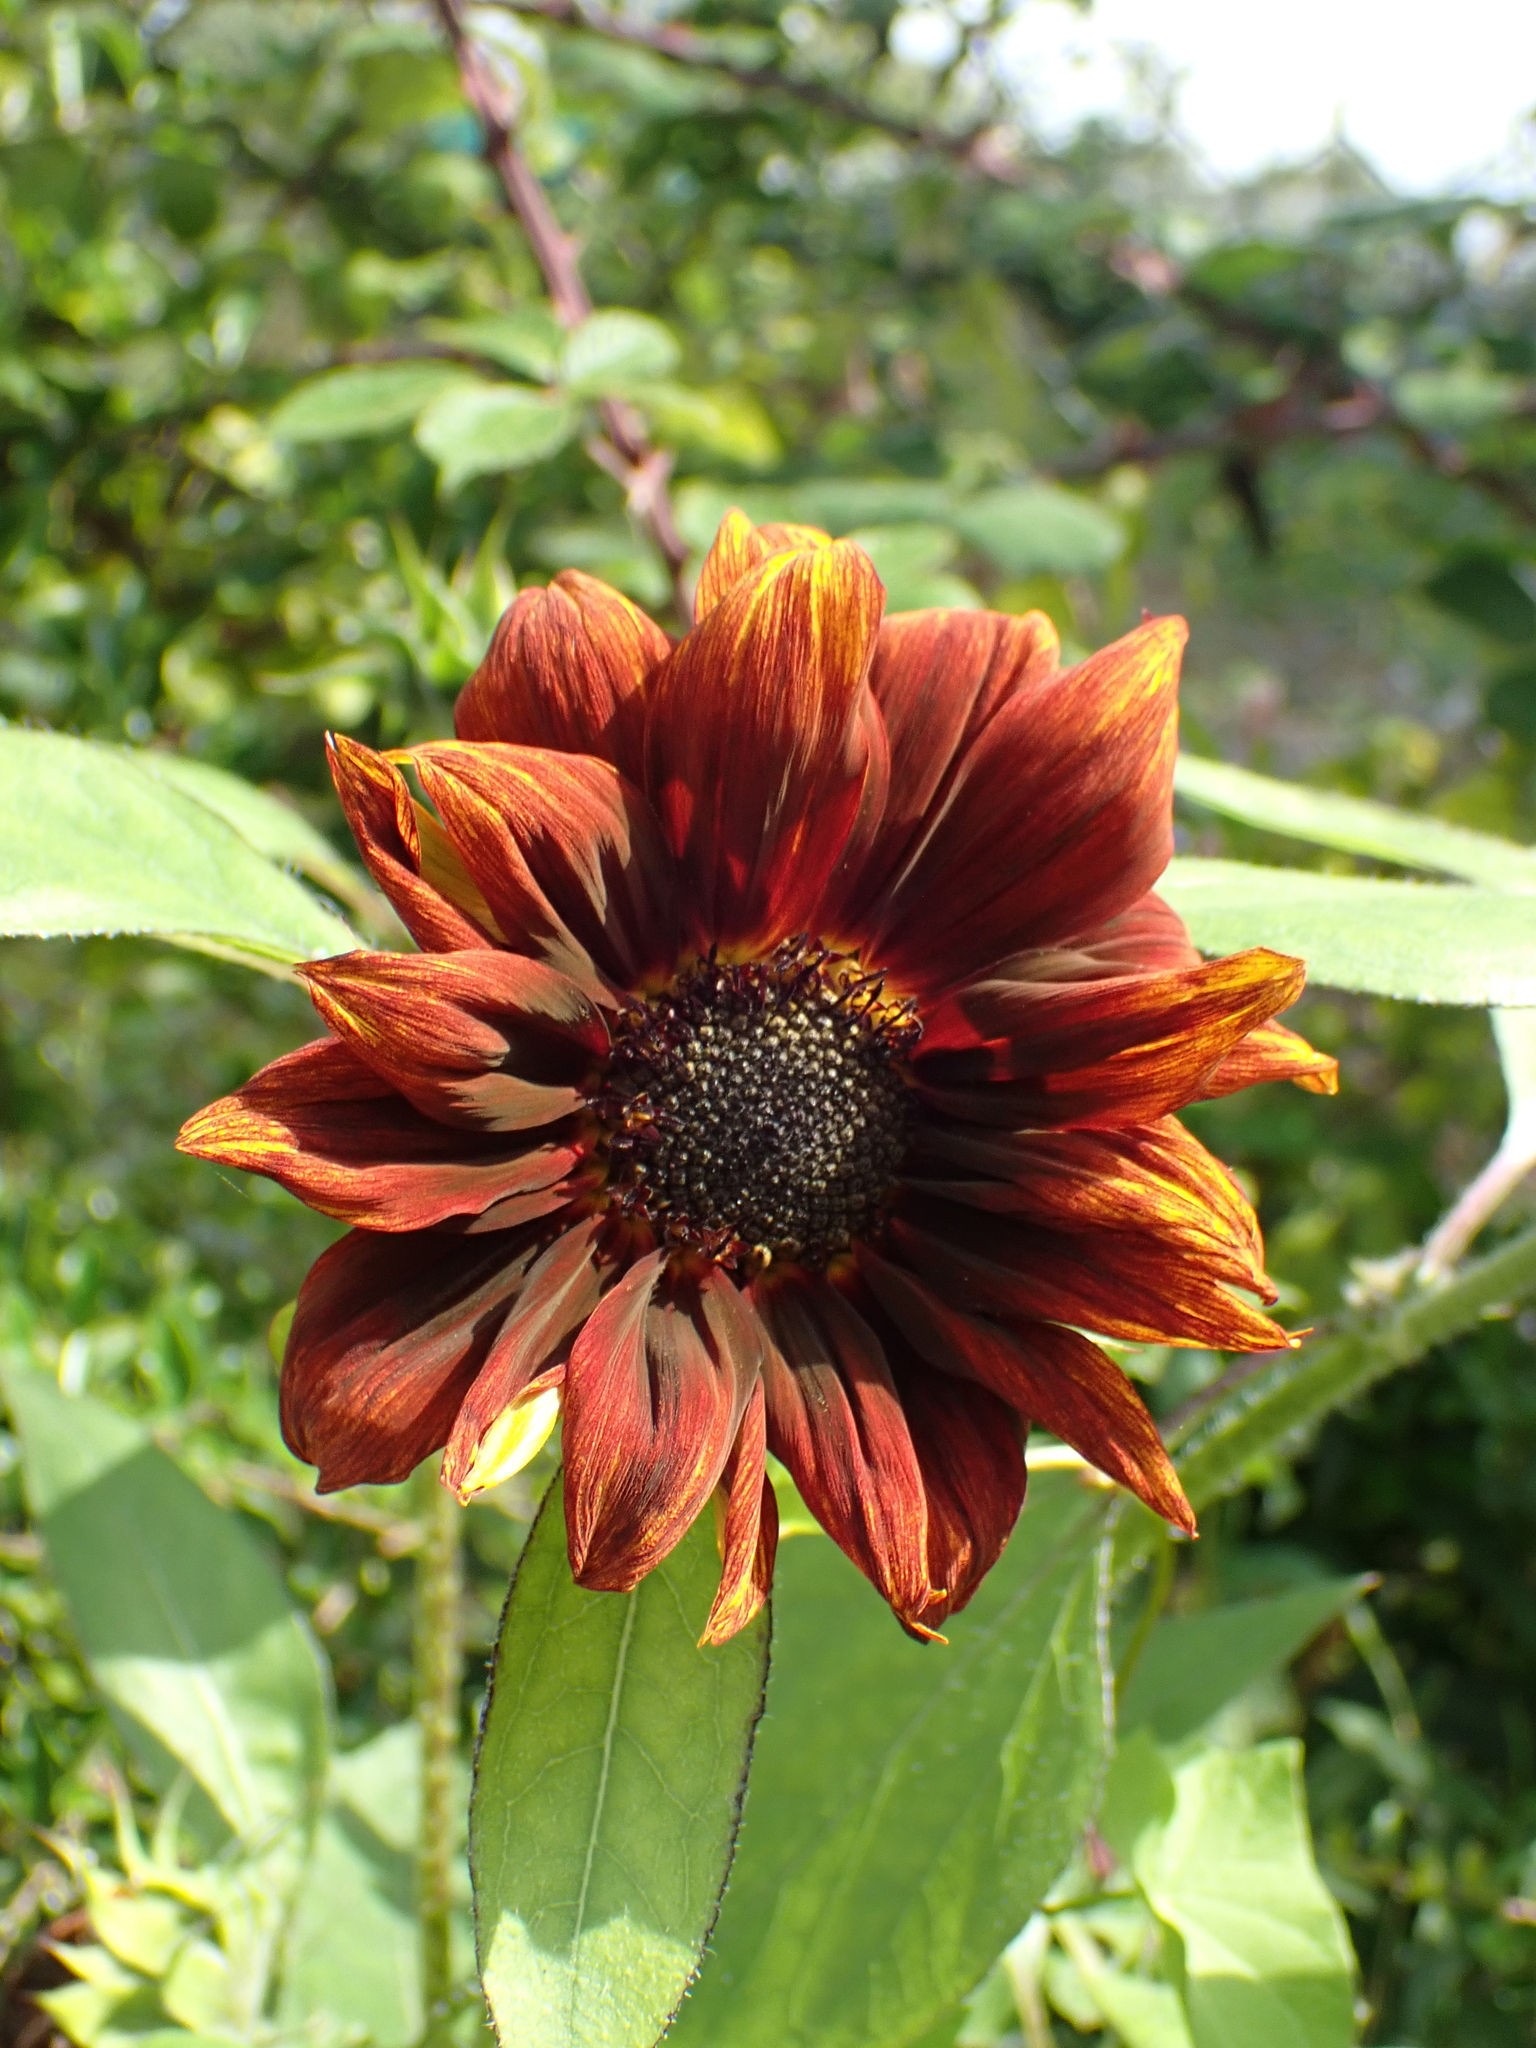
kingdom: Plantae
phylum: Tracheophyta
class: Magnoliopsida
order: Asterales
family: Asteraceae
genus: Helianthus
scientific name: Helianthus annuus
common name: Sunflower
